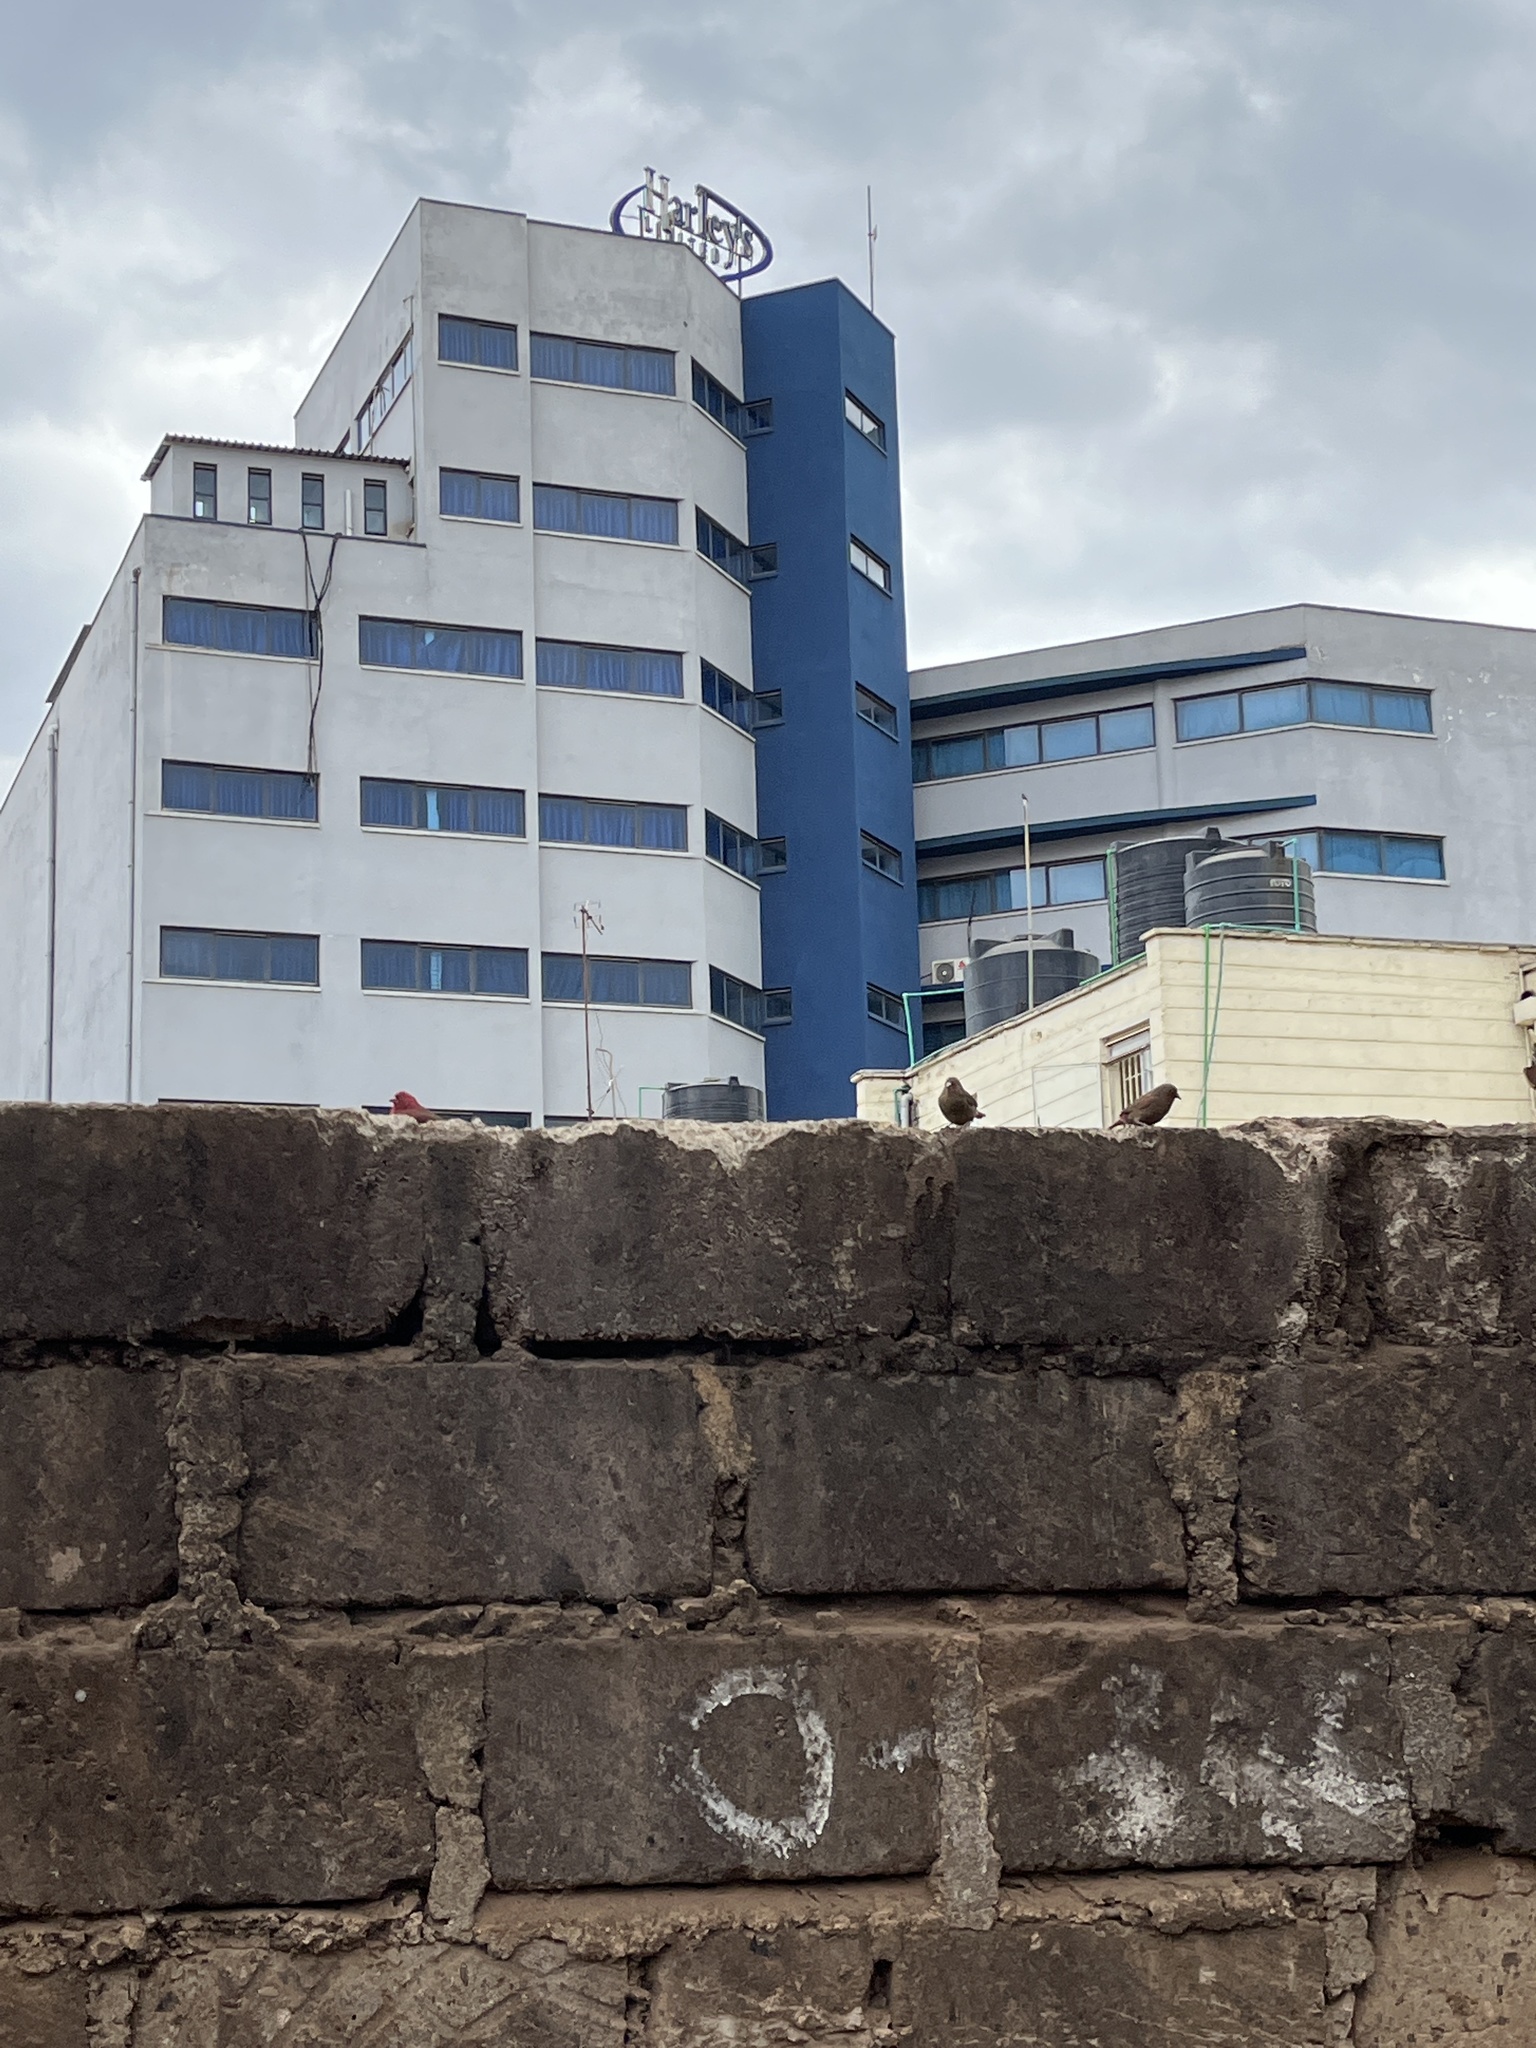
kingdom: Animalia
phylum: Chordata
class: Aves
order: Passeriformes
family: Estrildidae
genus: Lagonosticta
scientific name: Lagonosticta senegala
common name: Red-billed firefinch
